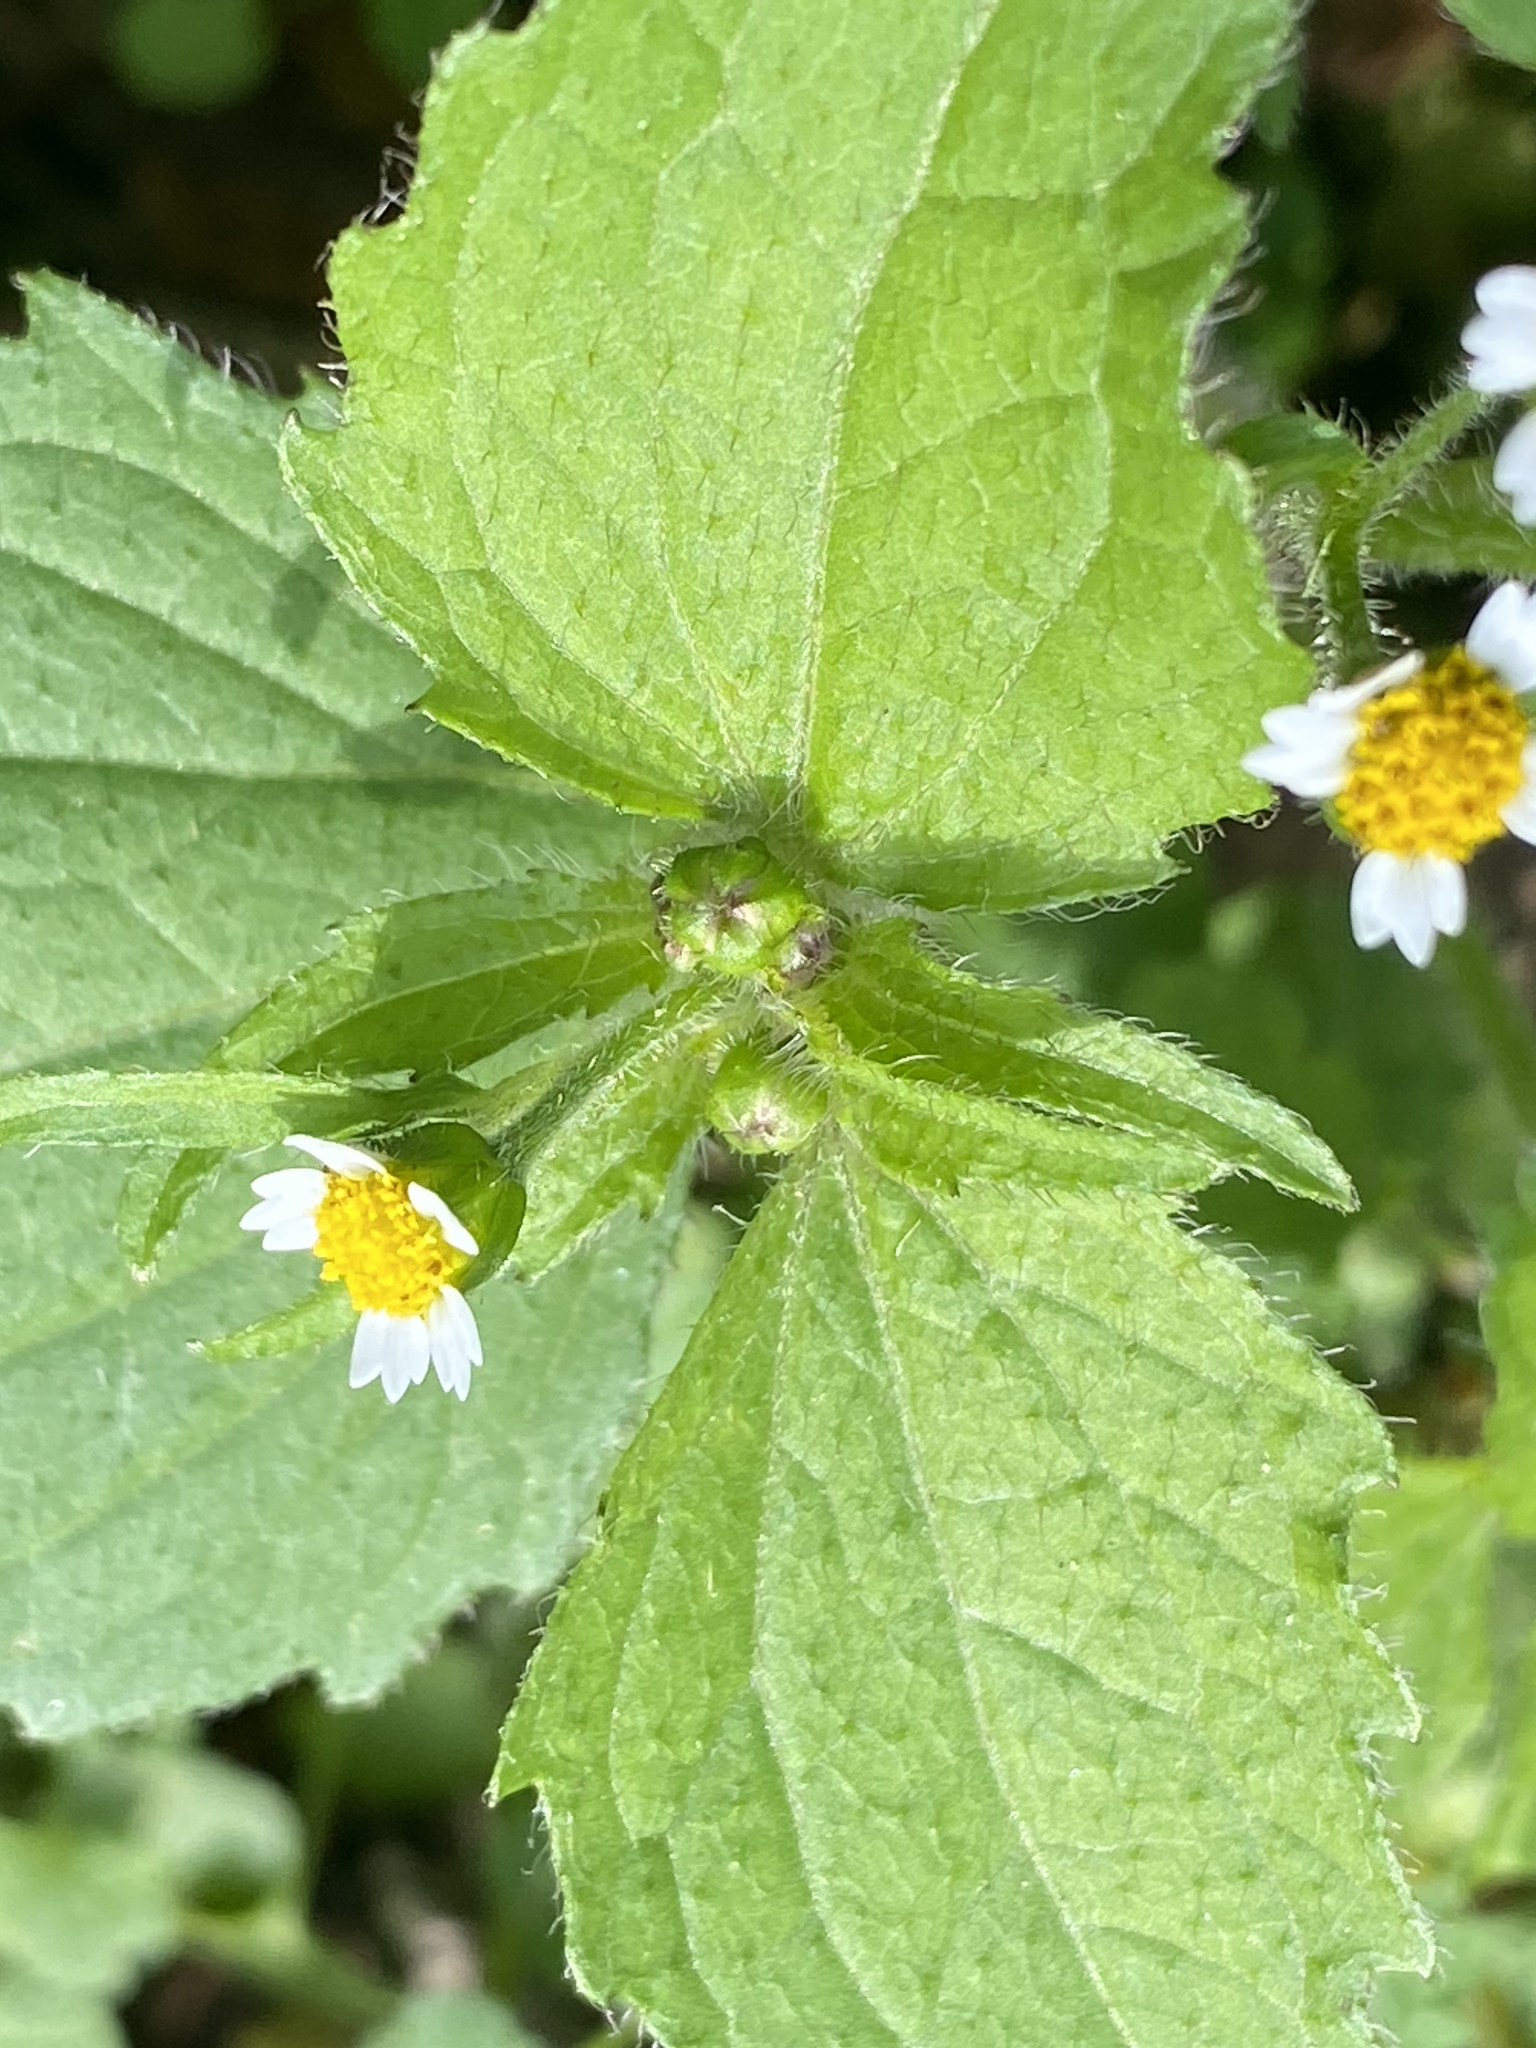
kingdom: Plantae
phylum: Tracheophyta
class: Magnoliopsida
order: Asterales
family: Asteraceae
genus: Galinsoga
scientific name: Galinsoga quadriradiata
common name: Shaggy soldier
